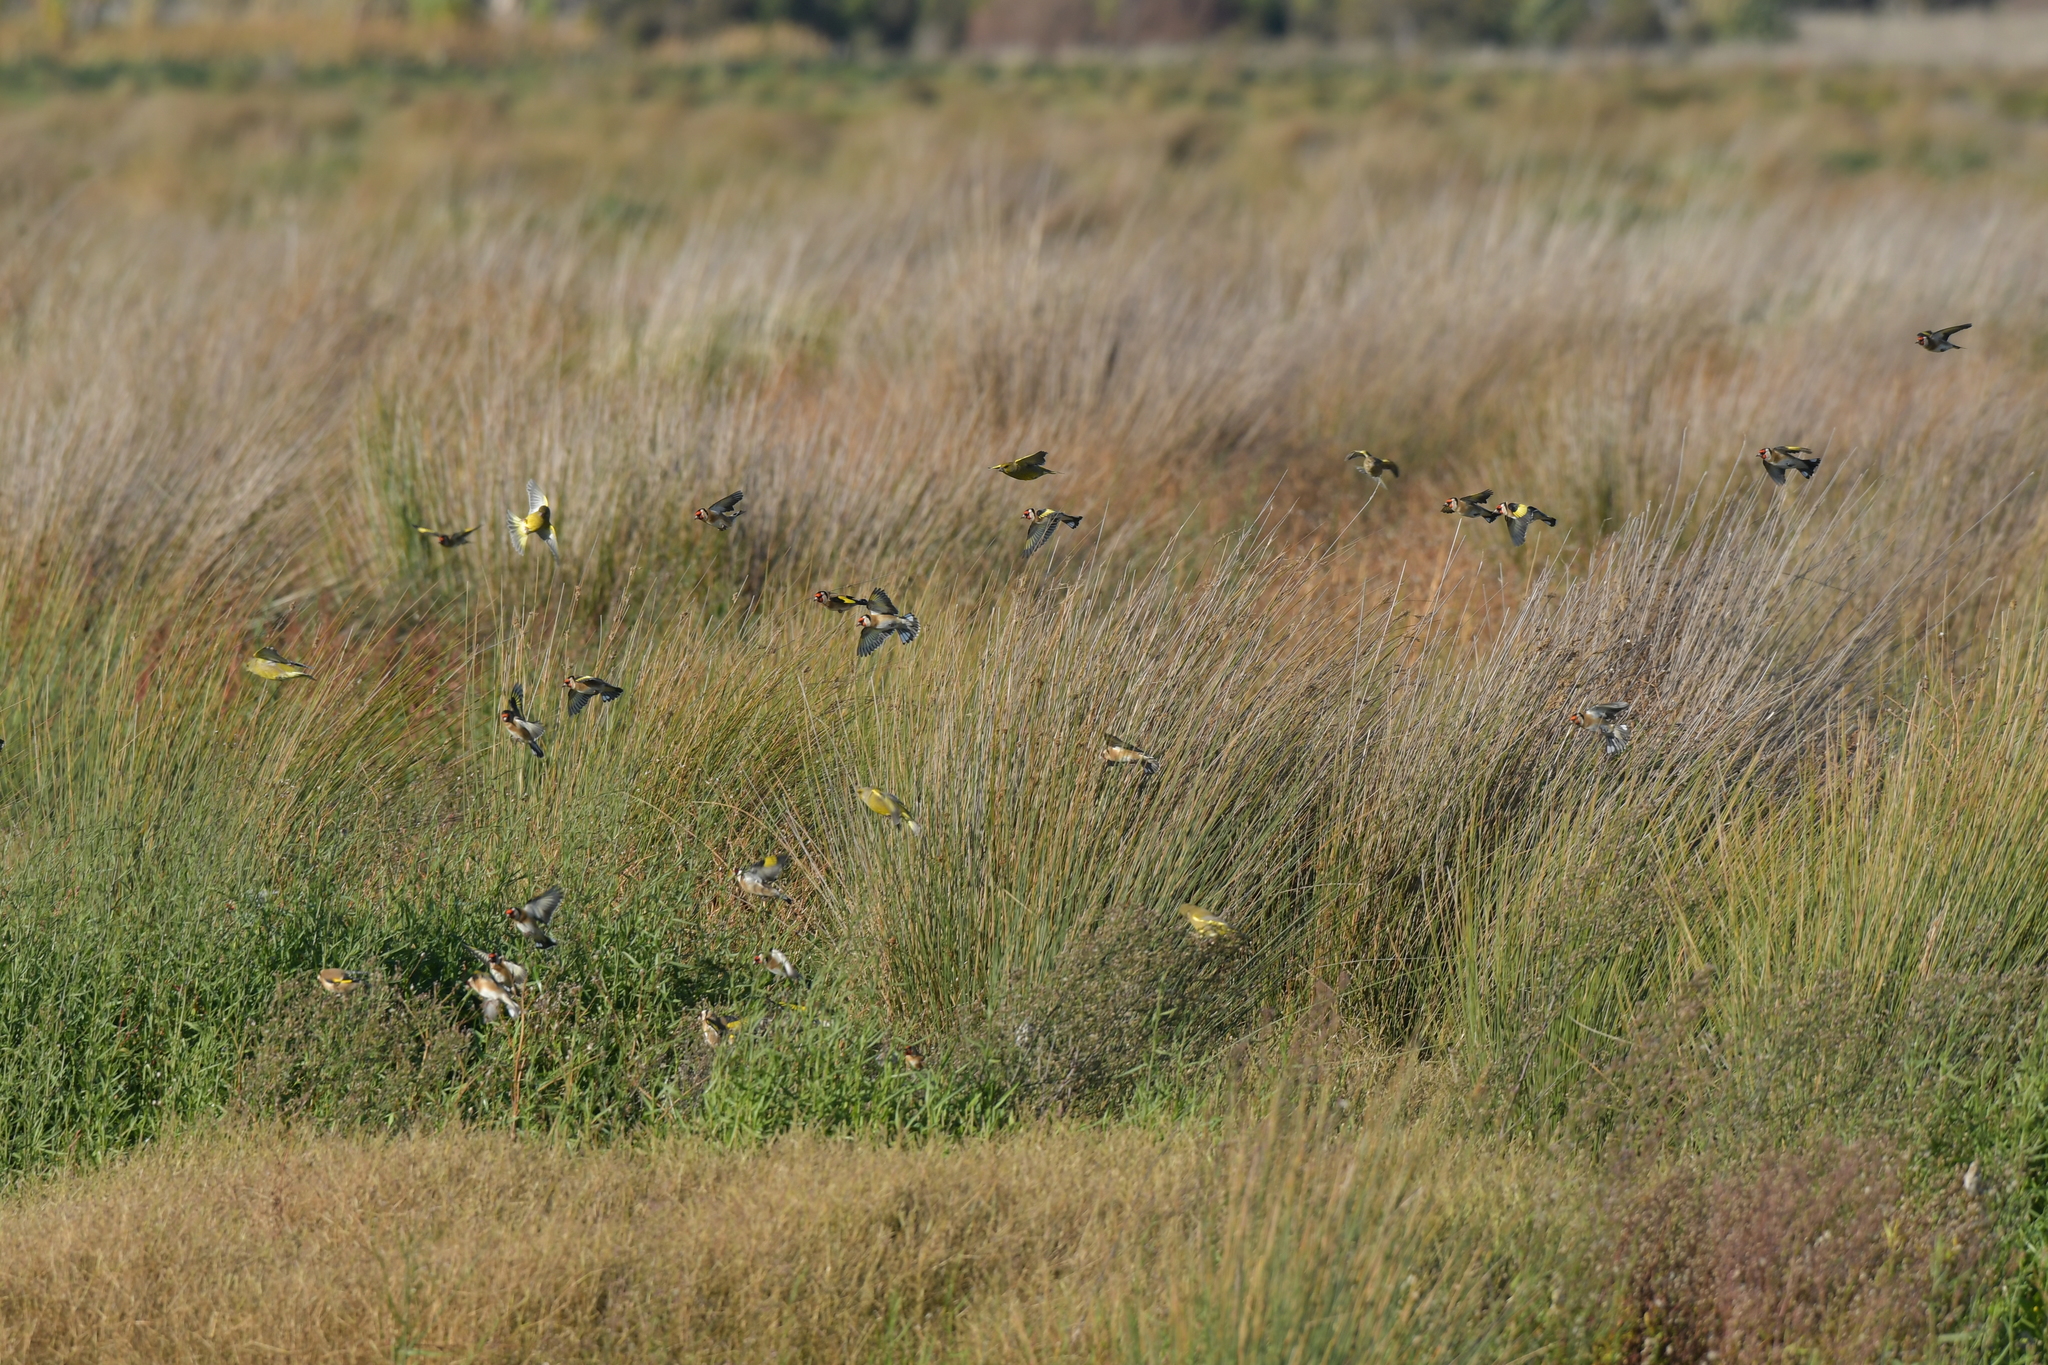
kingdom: Animalia
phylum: Chordata
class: Aves
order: Passeriformes
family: Fringillidae
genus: Carduelis
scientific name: Carduelis carduelis
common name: European goldfinch
